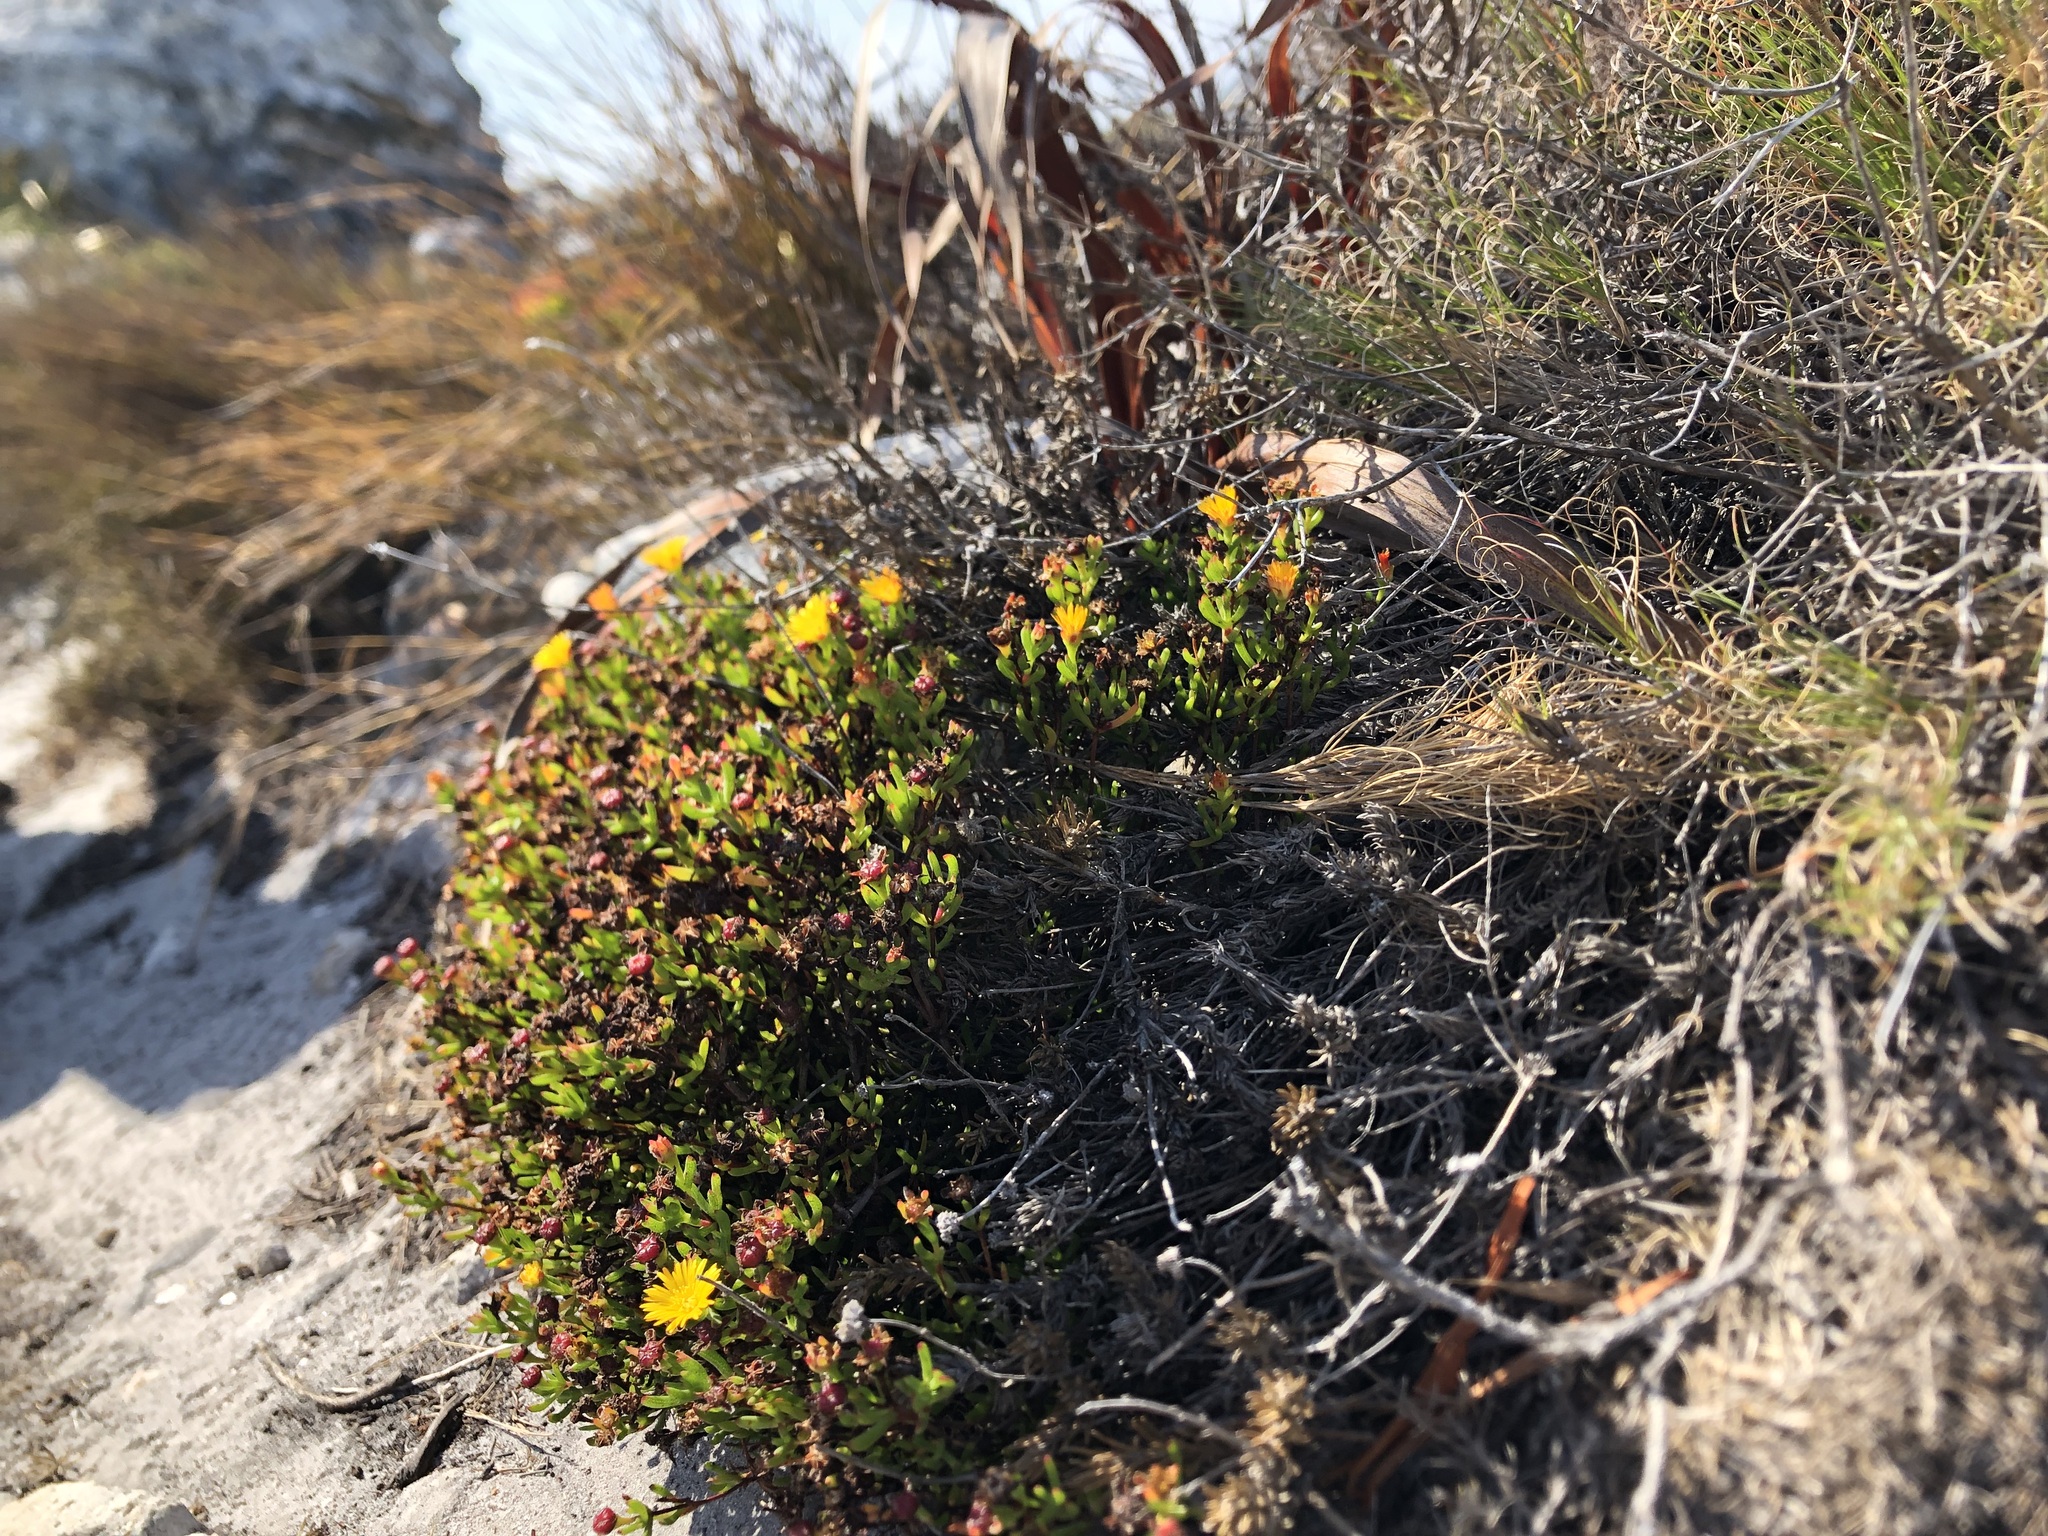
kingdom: Plantae
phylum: Tracheophyta
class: Magnoliopsida
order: Caryophyllales
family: Aizoaceae
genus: Lampranthus
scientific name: Lampranthus bicolor
